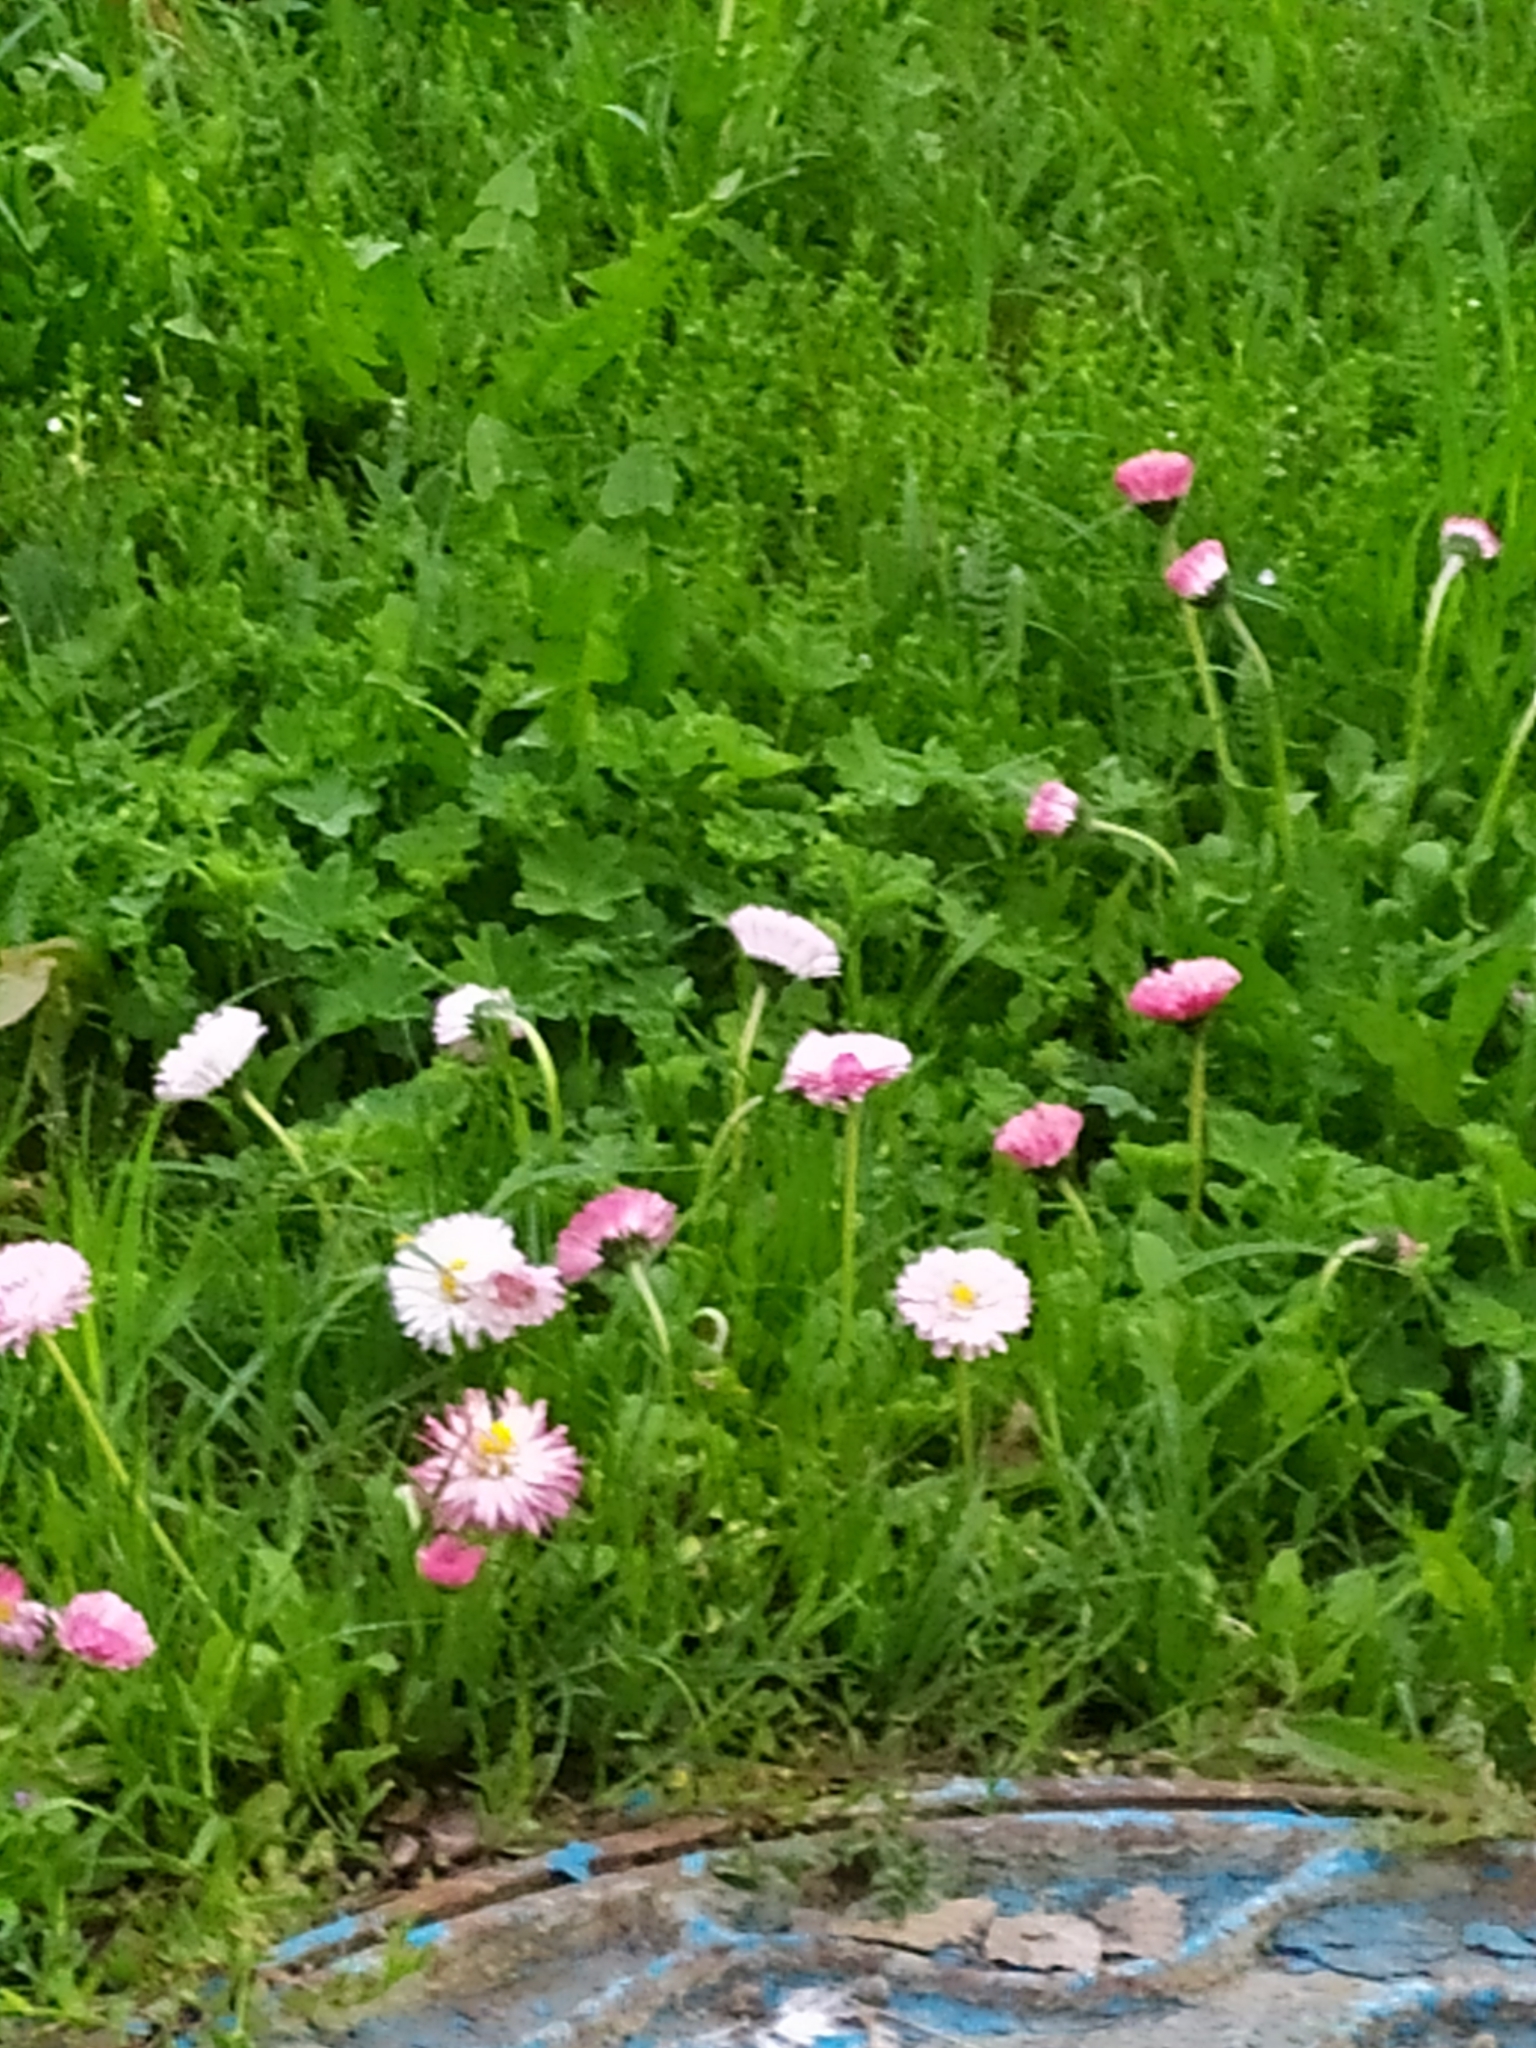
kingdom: Plantae
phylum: Tracheophyta
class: Magnoliopsida
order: Asterales
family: Asteraceae
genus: Bellis
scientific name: Bellis perennis
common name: Lawndaisy
